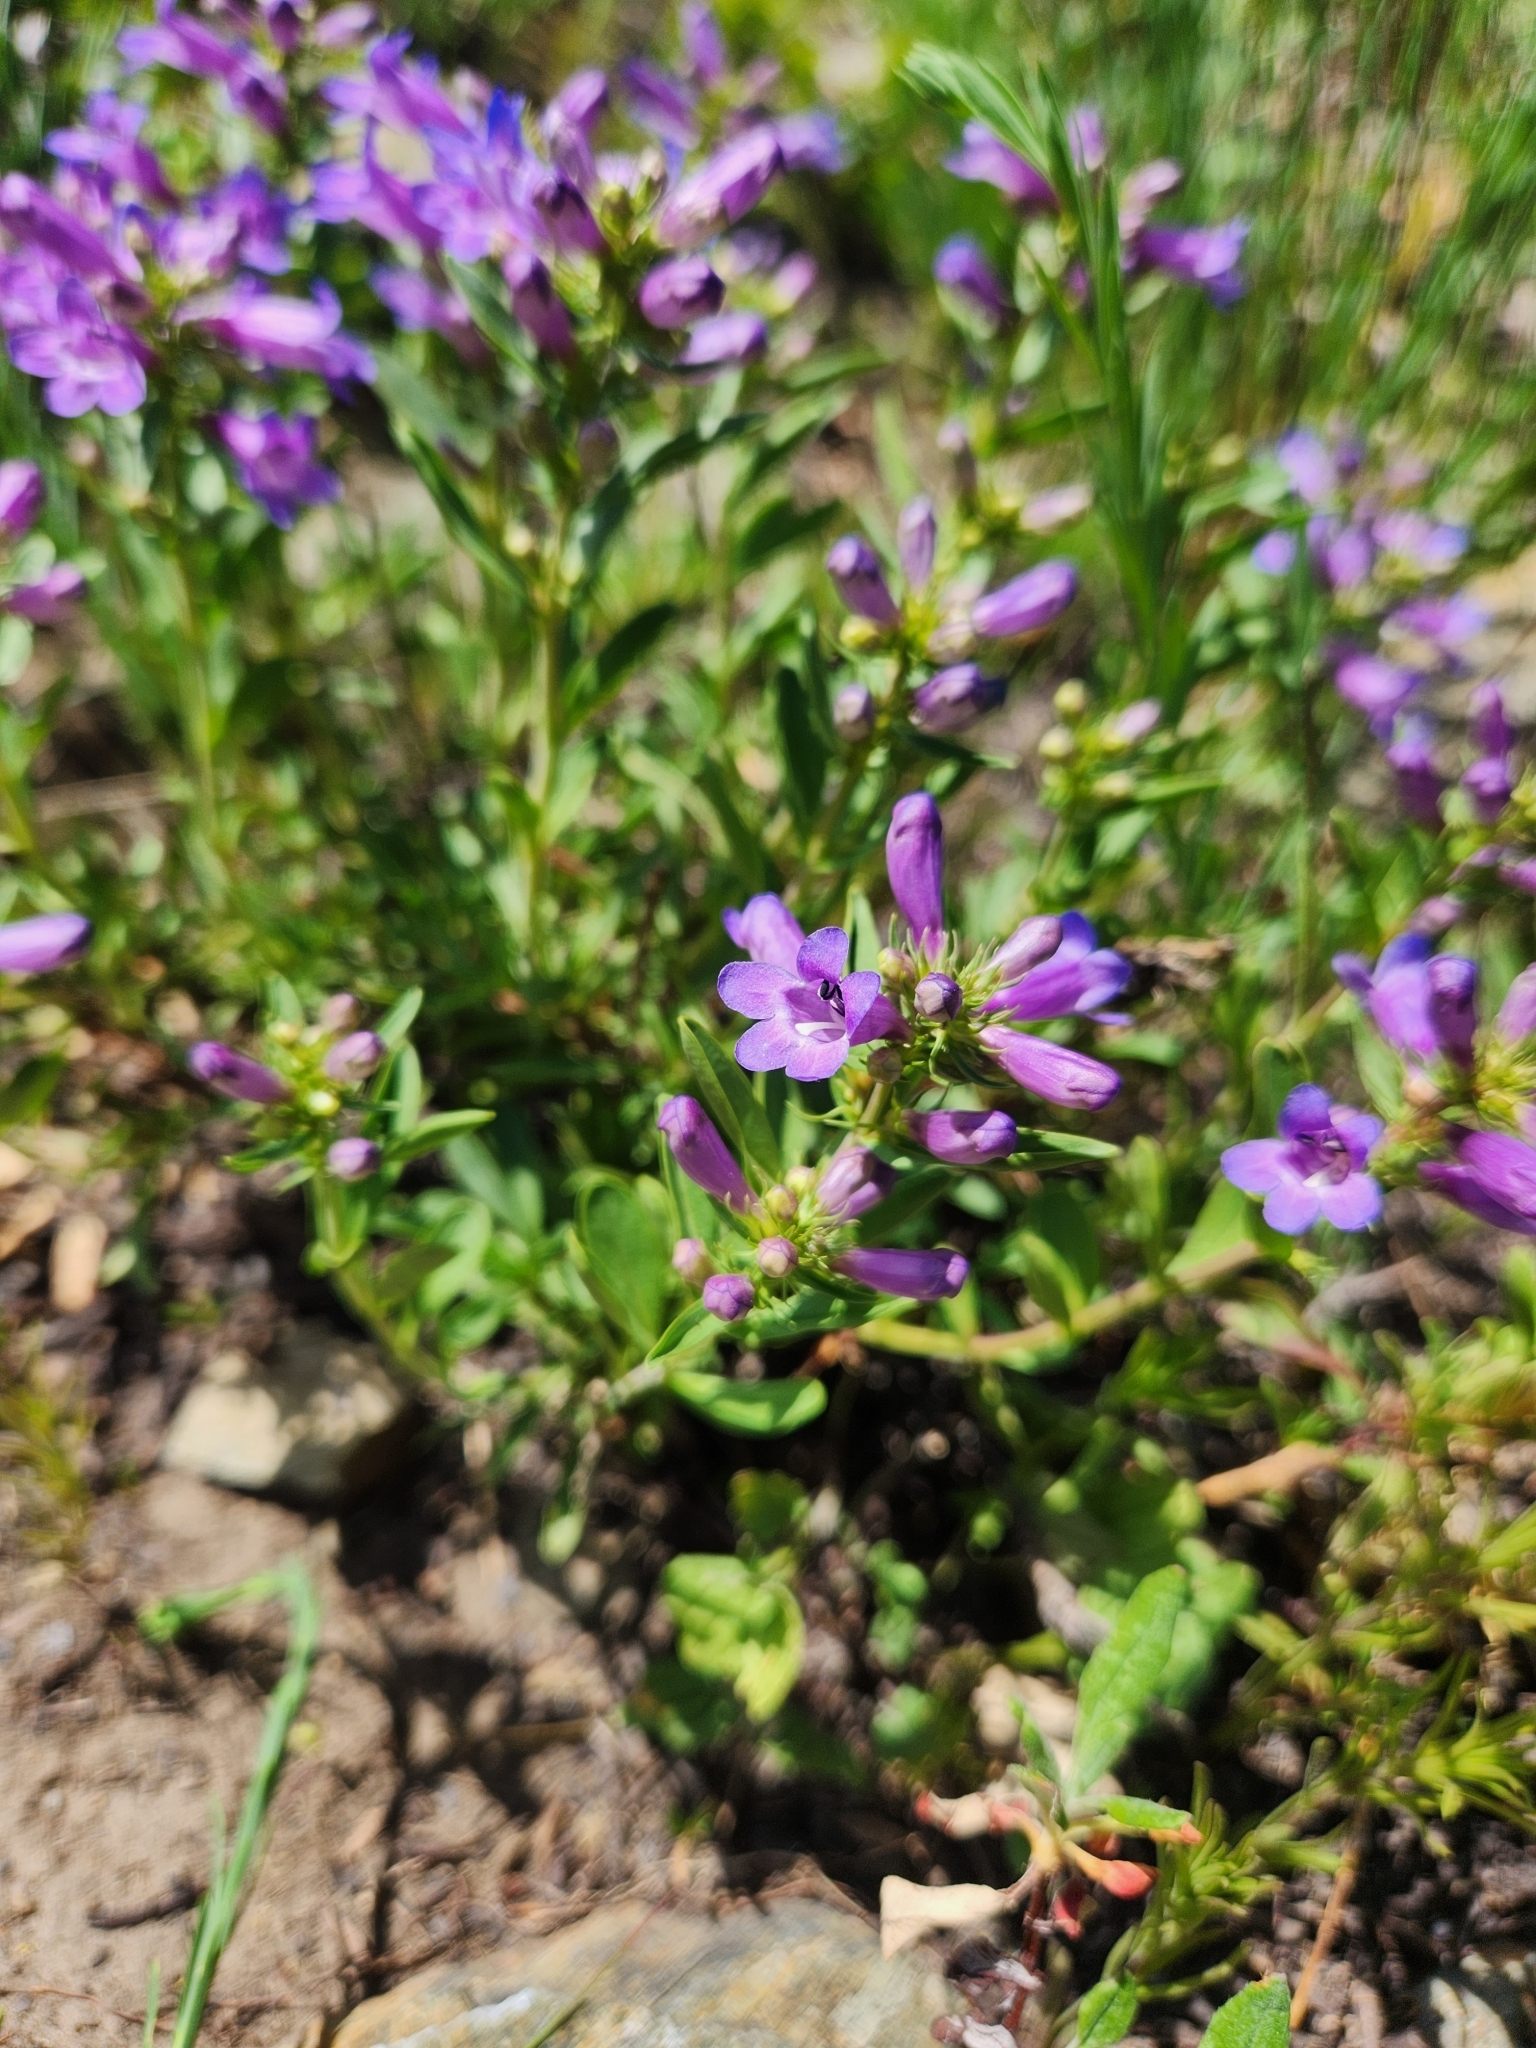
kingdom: Plantae
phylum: Tracheophyta
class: Magnoliopsida
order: Lamiales
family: Plantaginaceae
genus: Penstemon
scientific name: Penstemon leonardii
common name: Leonard's penstemon
